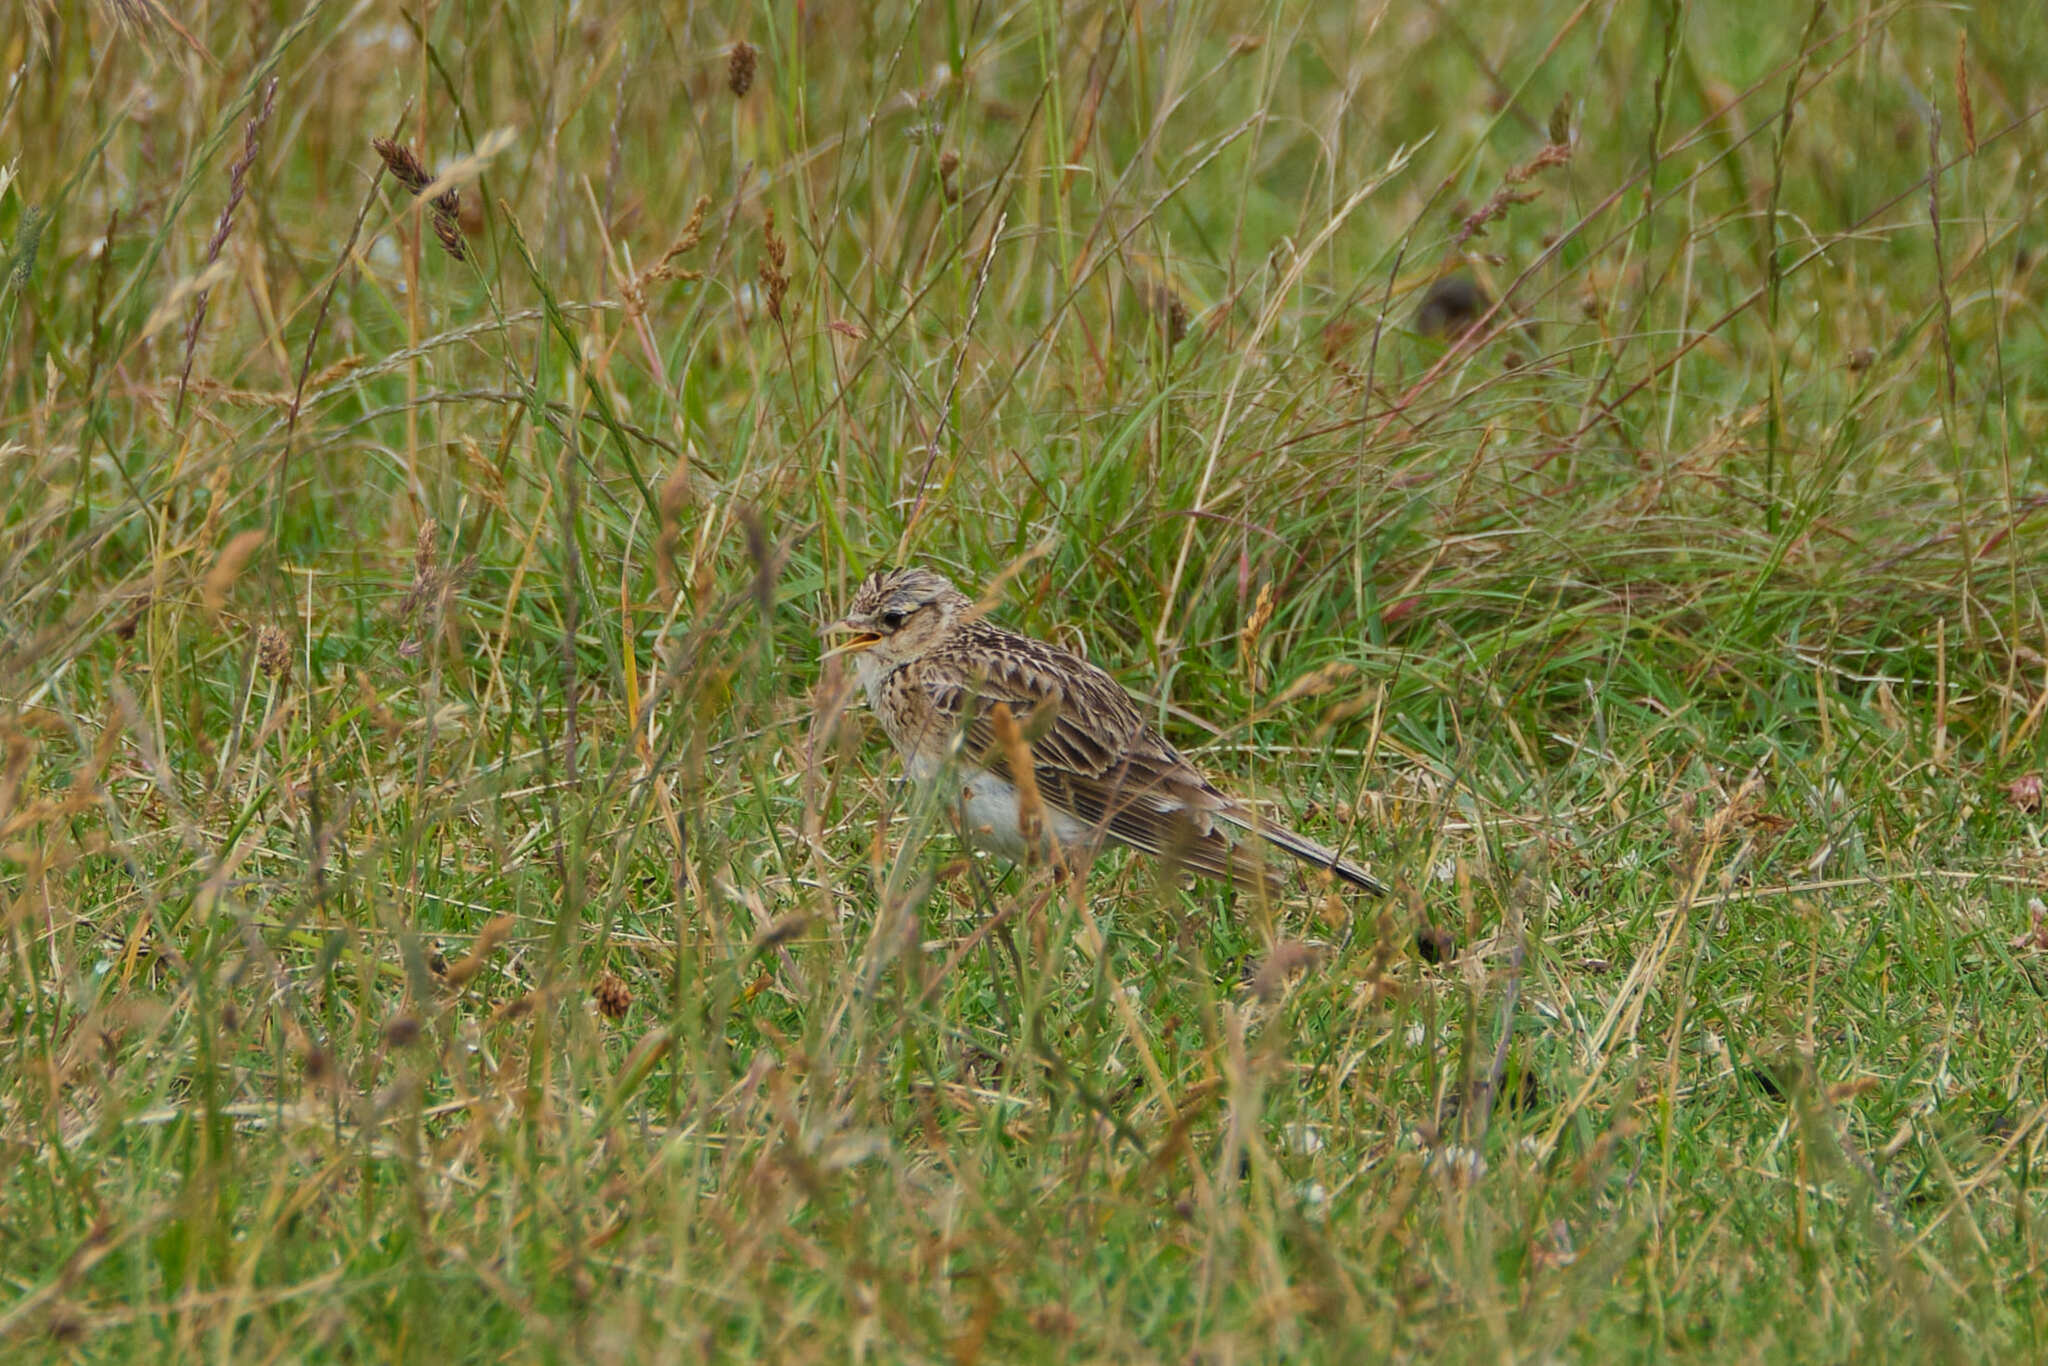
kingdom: Animalia
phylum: Chordata
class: Aves
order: Passeriformes
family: Alaudidae
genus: Alauda
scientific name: Alauda arvensis
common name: Eurasian skylark
